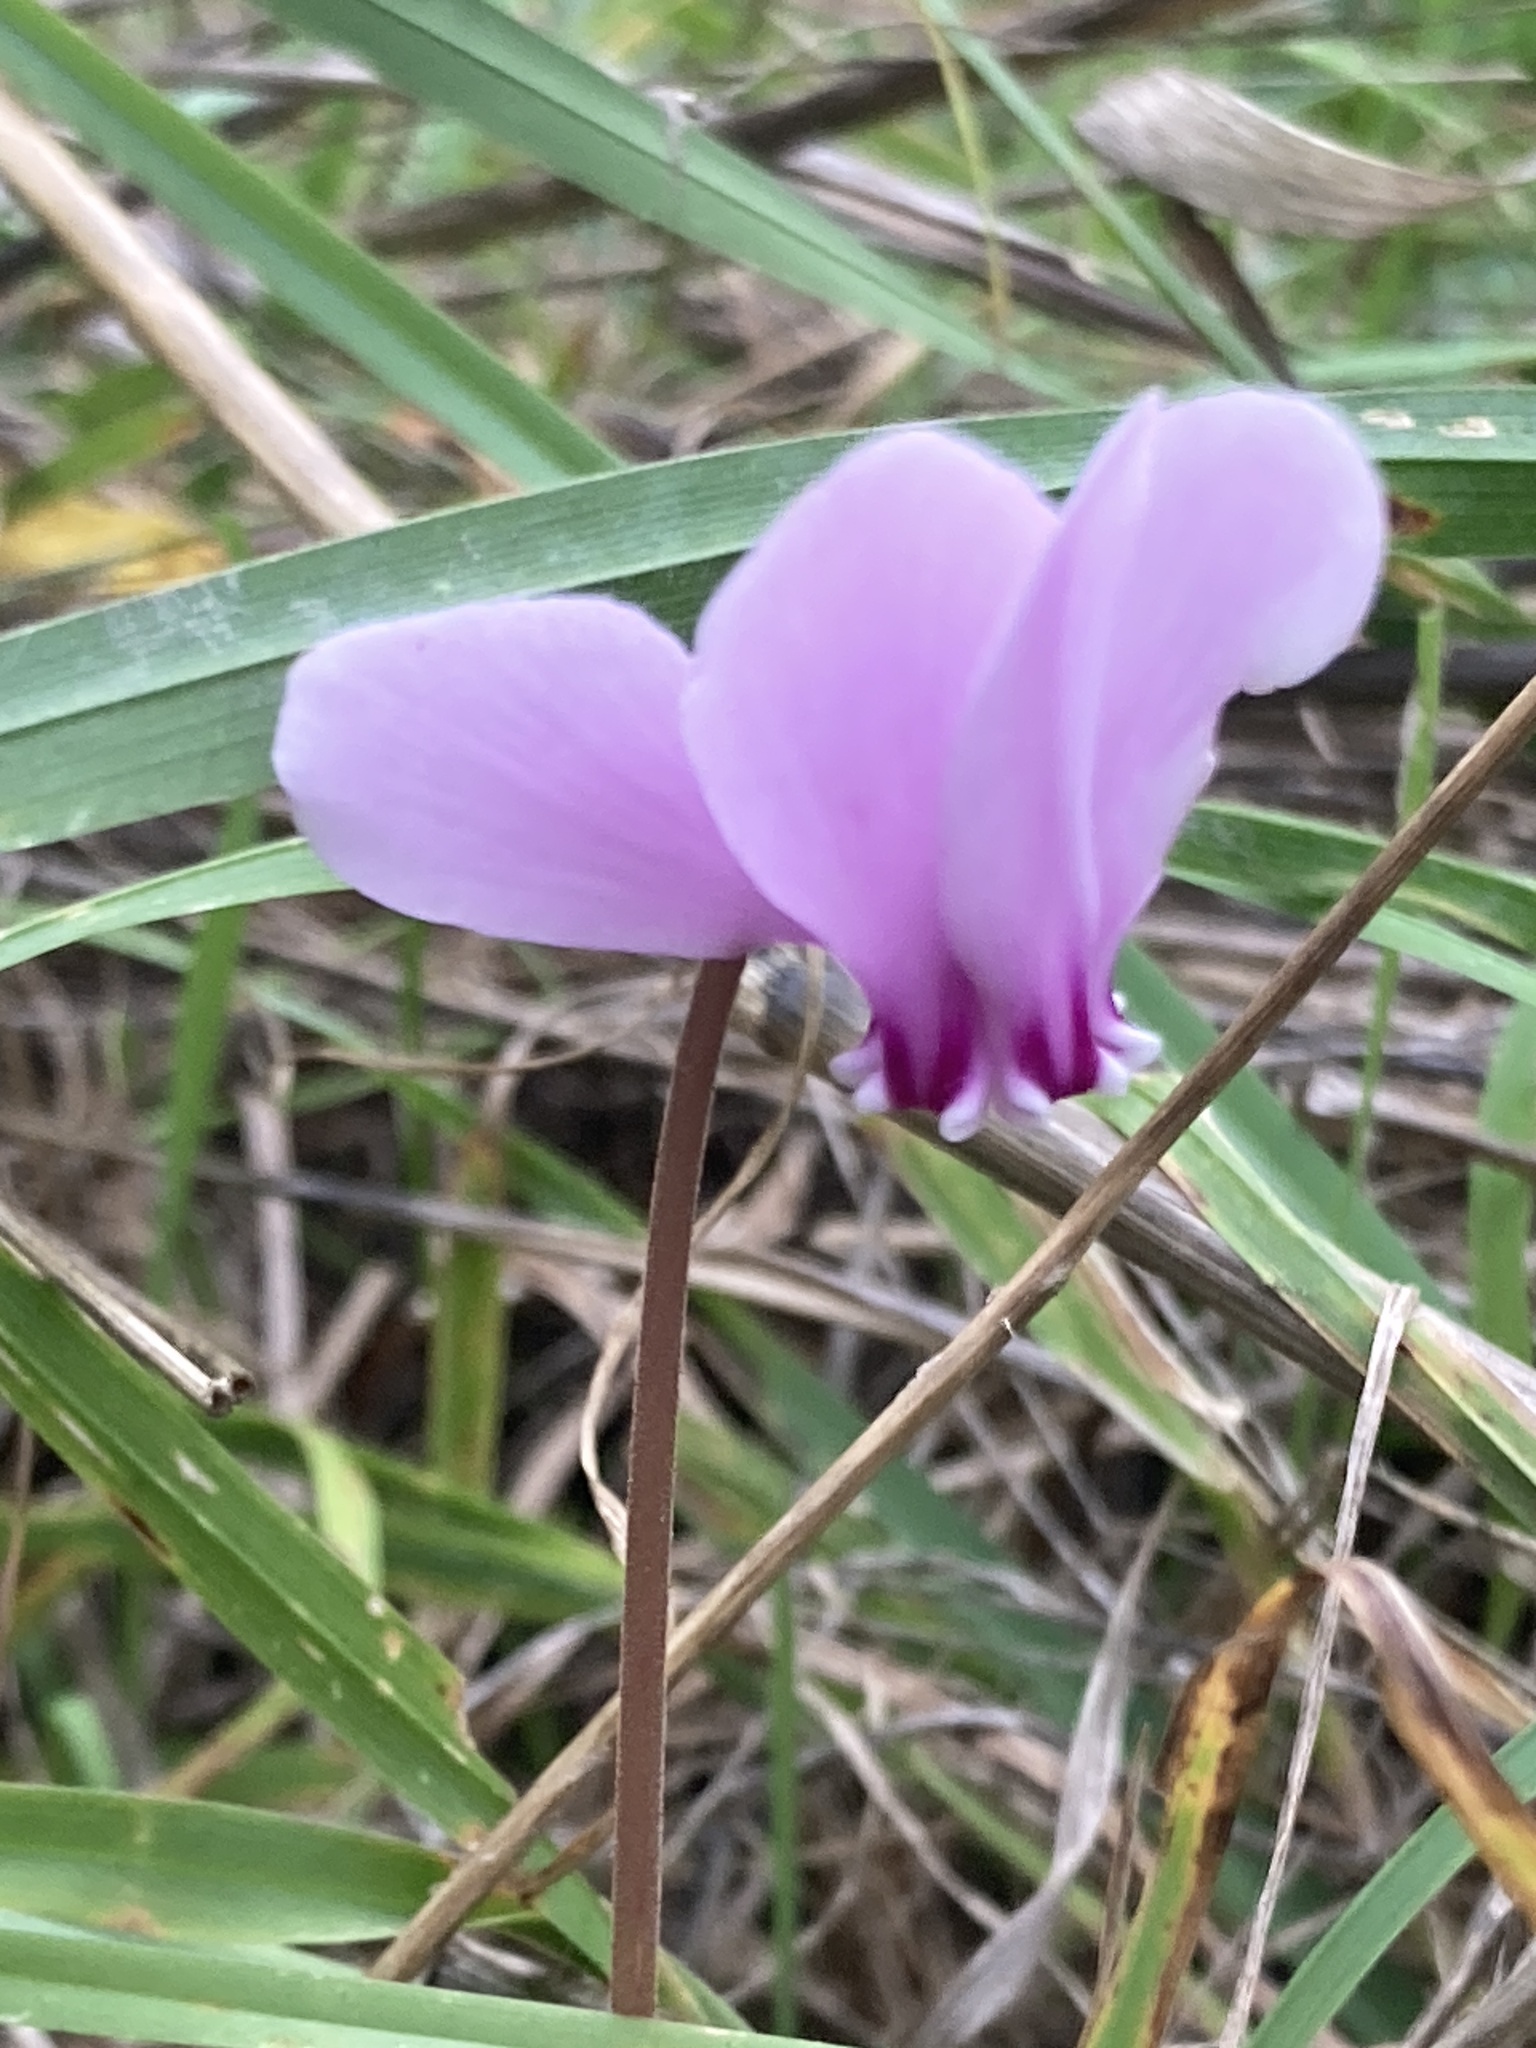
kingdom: Plantae
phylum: Tracheophyta
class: Magnoliopsida
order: Ericales
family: Primulaceae
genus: Cyclamen
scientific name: Cyclamen hederifolium
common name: Sowbread
